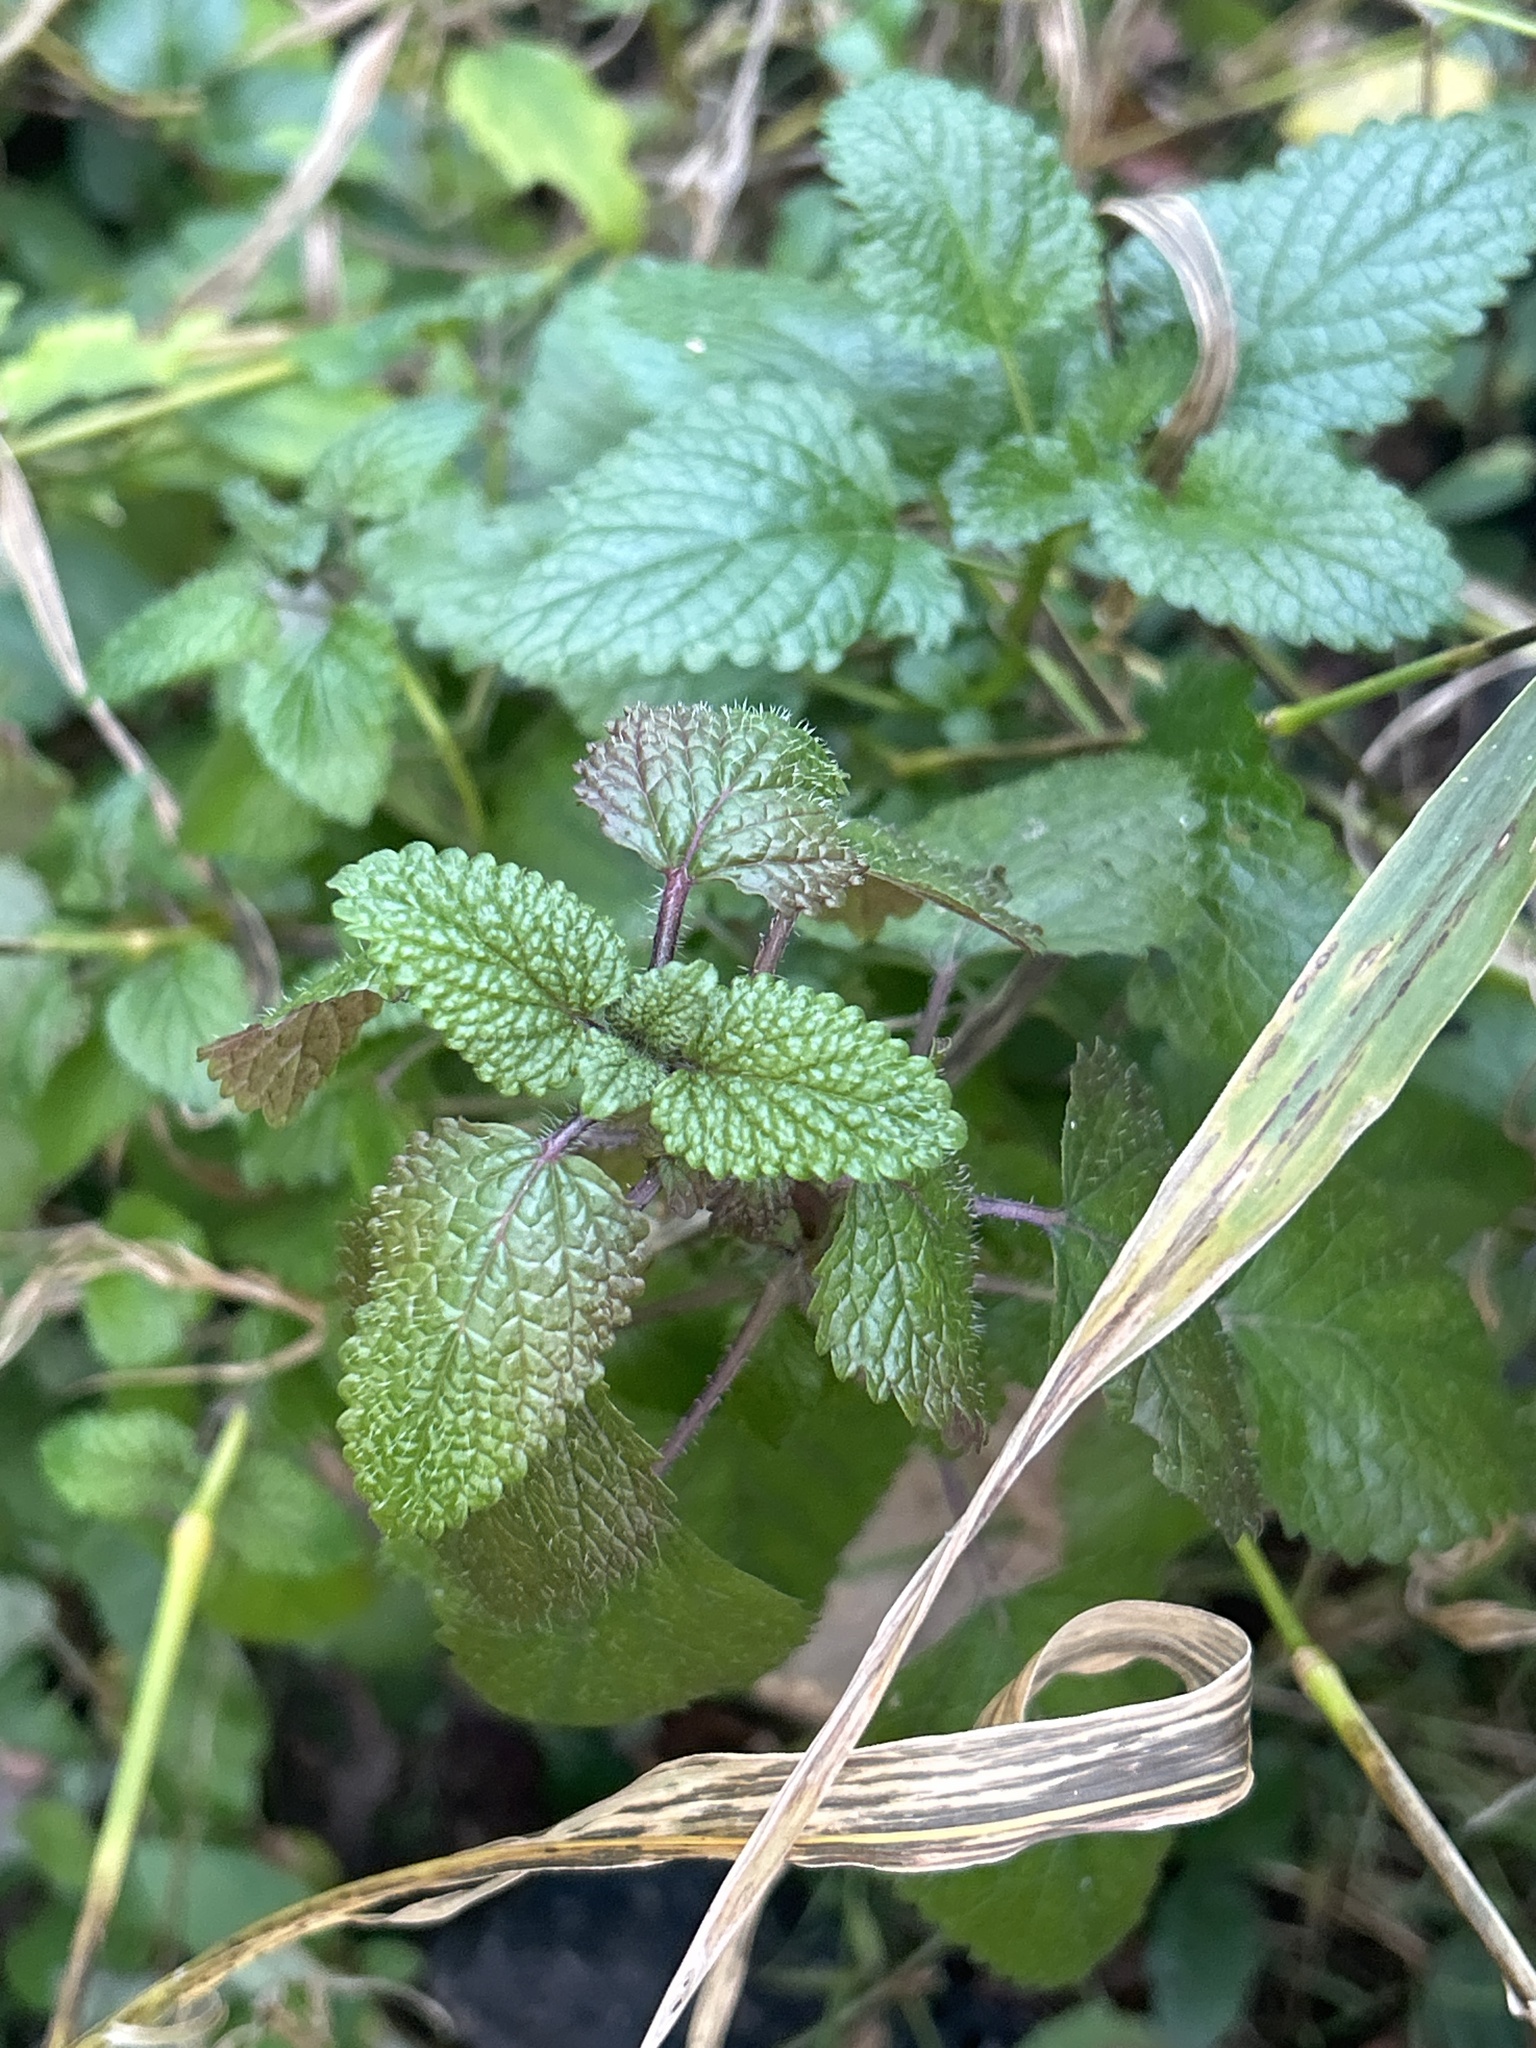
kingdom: Plantae
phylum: Tracheophyta
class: Magnoliopsida
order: Lamiales
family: Lamiaceae
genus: Melissa
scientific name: Melissa officinalis
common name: Balm
